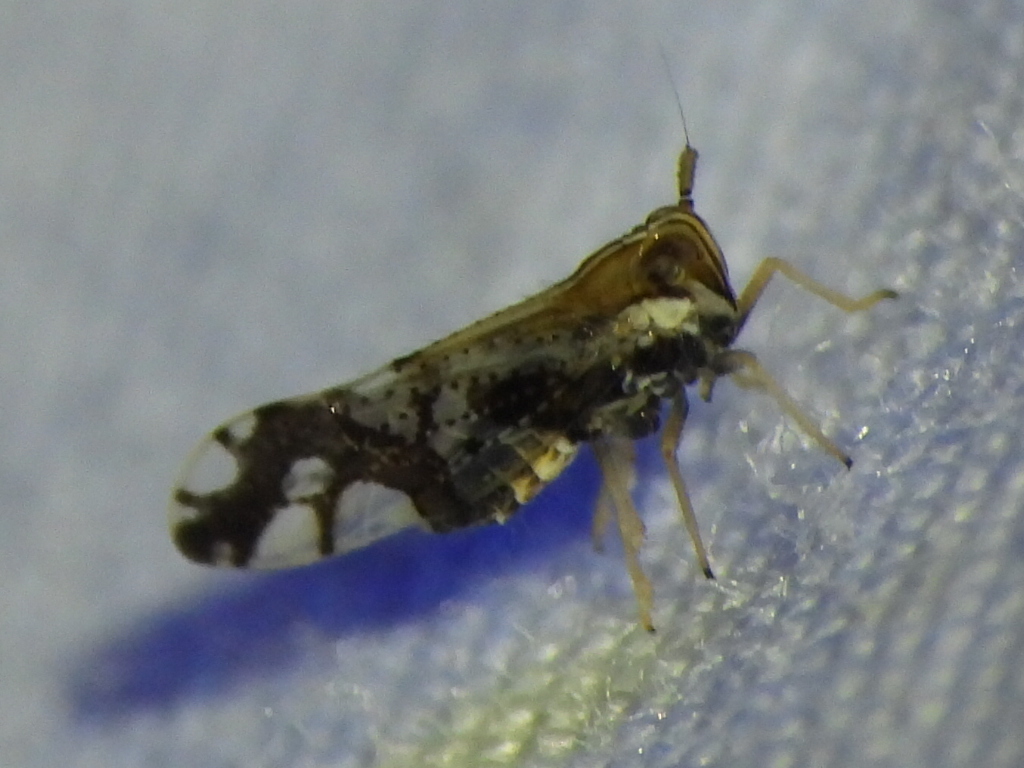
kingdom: Animalia
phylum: Arthropoda
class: Insecta
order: Hemiptera
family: Delphacidae
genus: Liburniella
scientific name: Liburniella ornata
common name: Ornate planthopper
